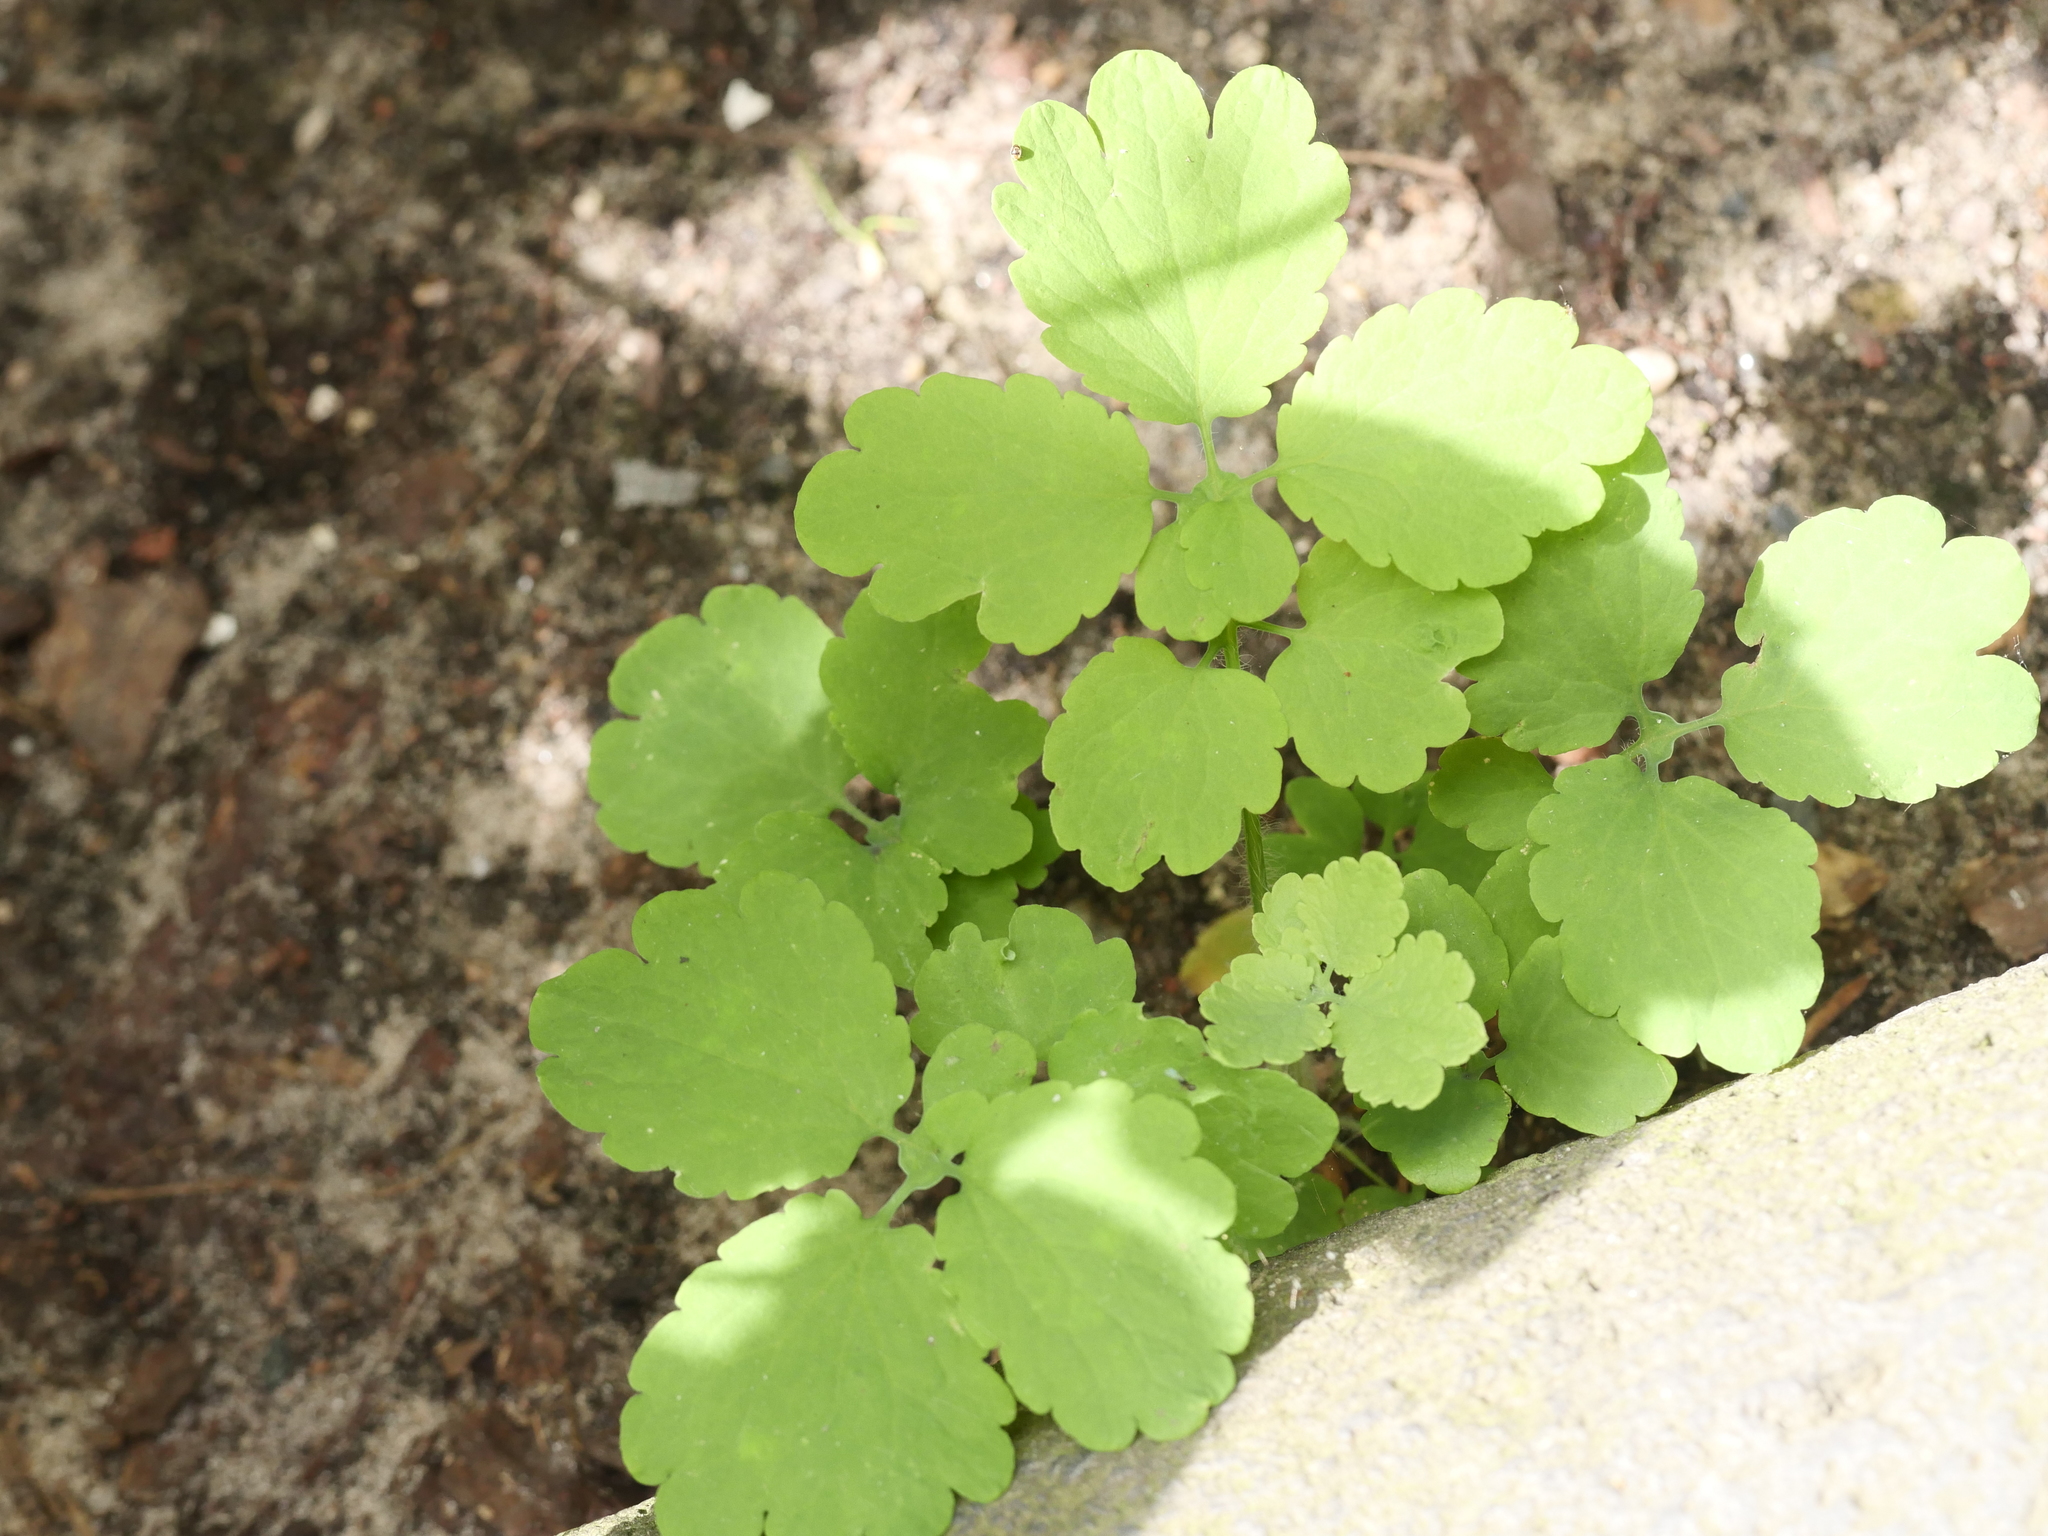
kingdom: Plantae
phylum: Tracheophyta
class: Magnoliopsida
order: Ranunculales
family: Papaveraceae
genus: Chelidonium
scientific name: Chelidonium majus
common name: Greater celandine
